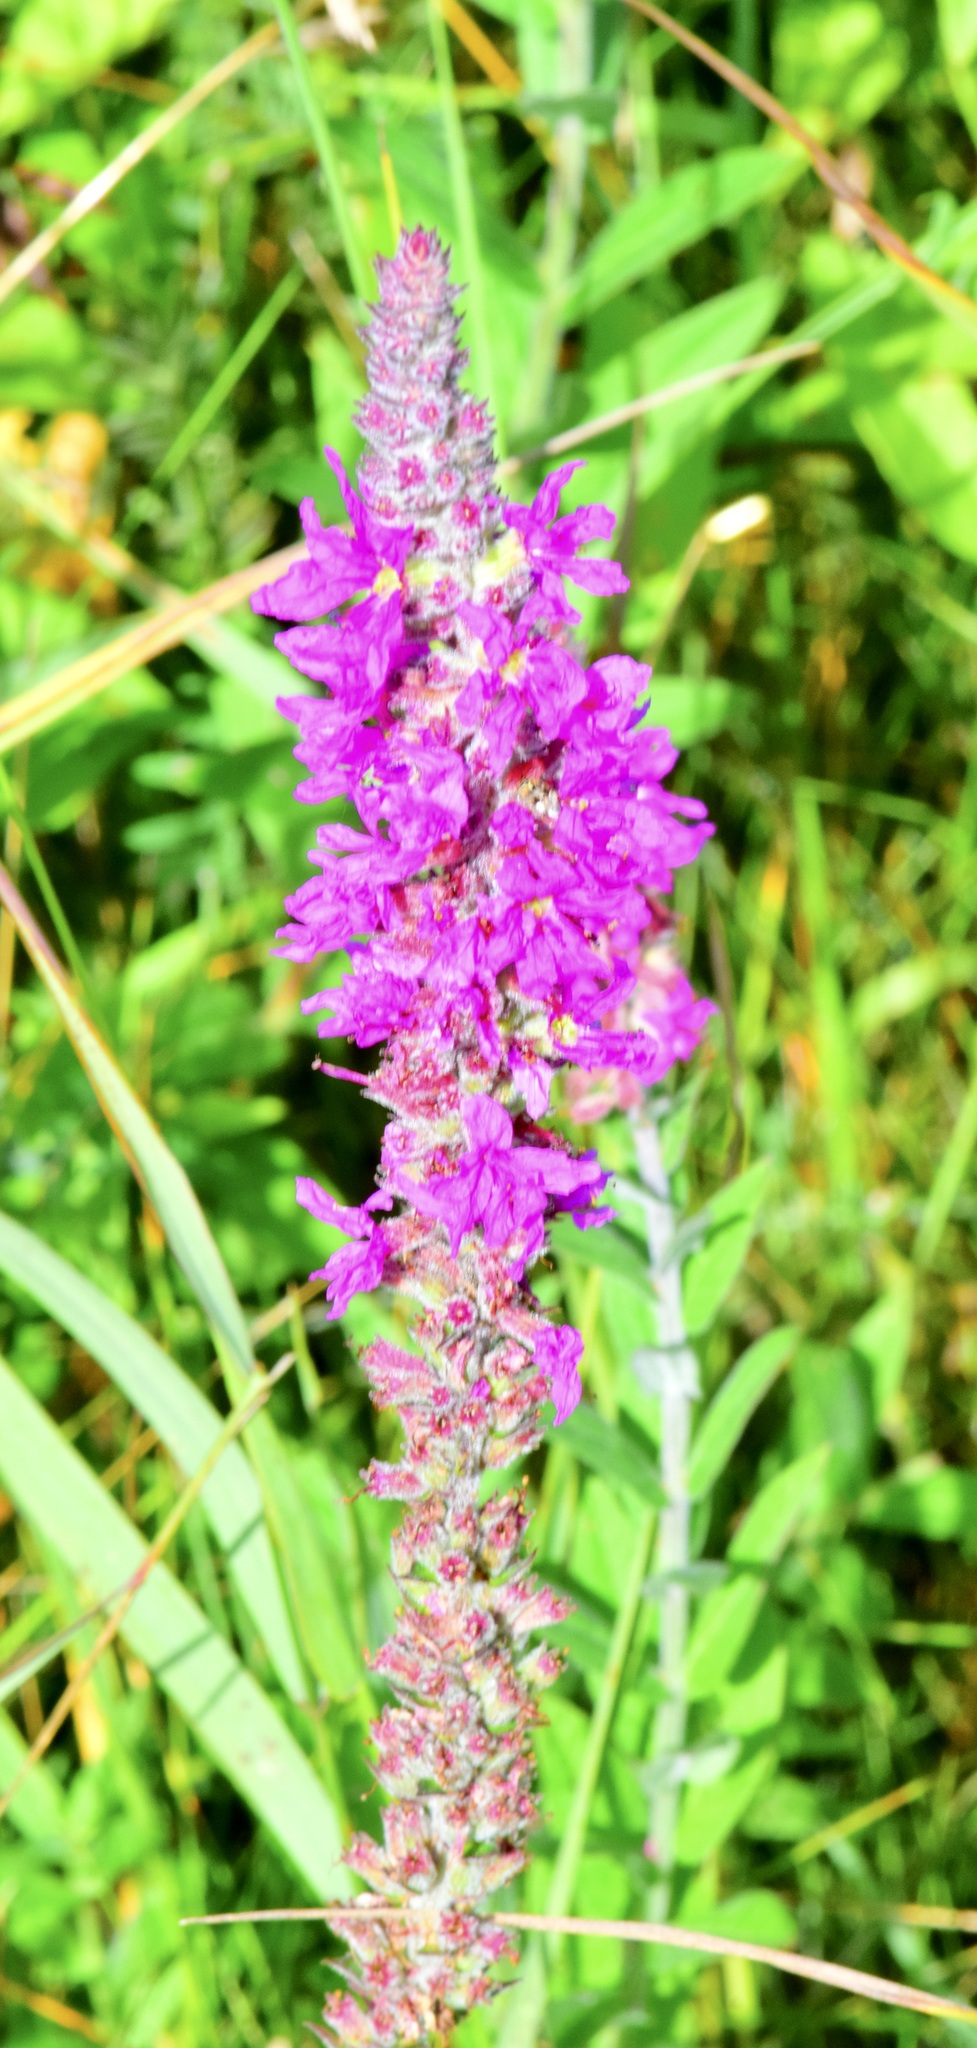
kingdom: Plantae
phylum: Tracheophyta
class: Magnoliopsida
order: Myrtales
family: Lythraceae
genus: Lythrum
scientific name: Lythrum salicaria
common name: Purple loosestrife
